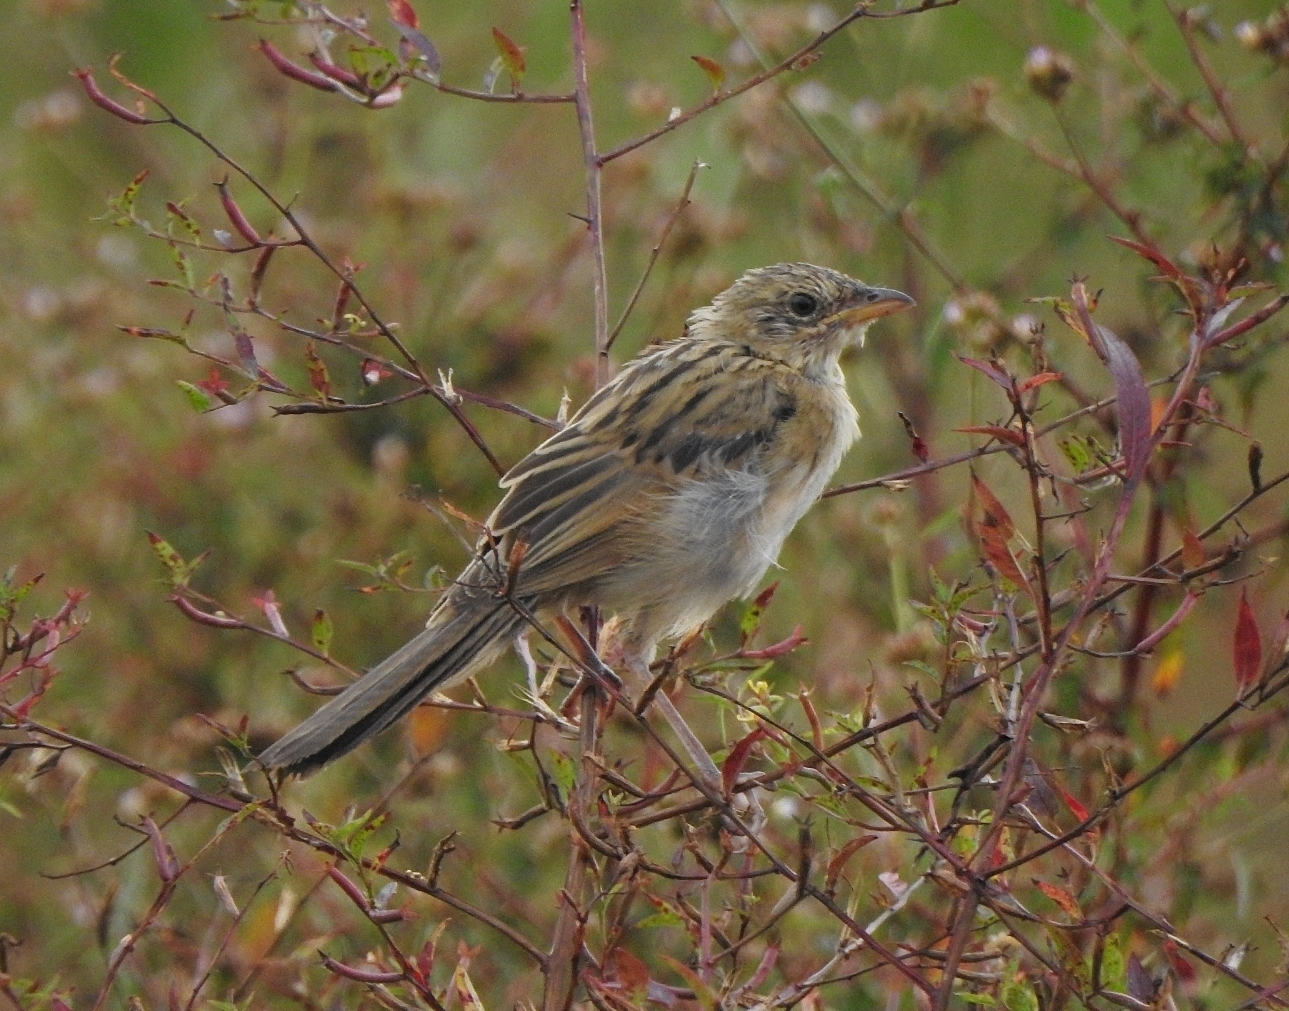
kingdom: Animalia
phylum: Chordata
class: Aves
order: Passeriformes
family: Locustellidae
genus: Chaetornis
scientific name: Chaetornis striata
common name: Bristled grassbird
